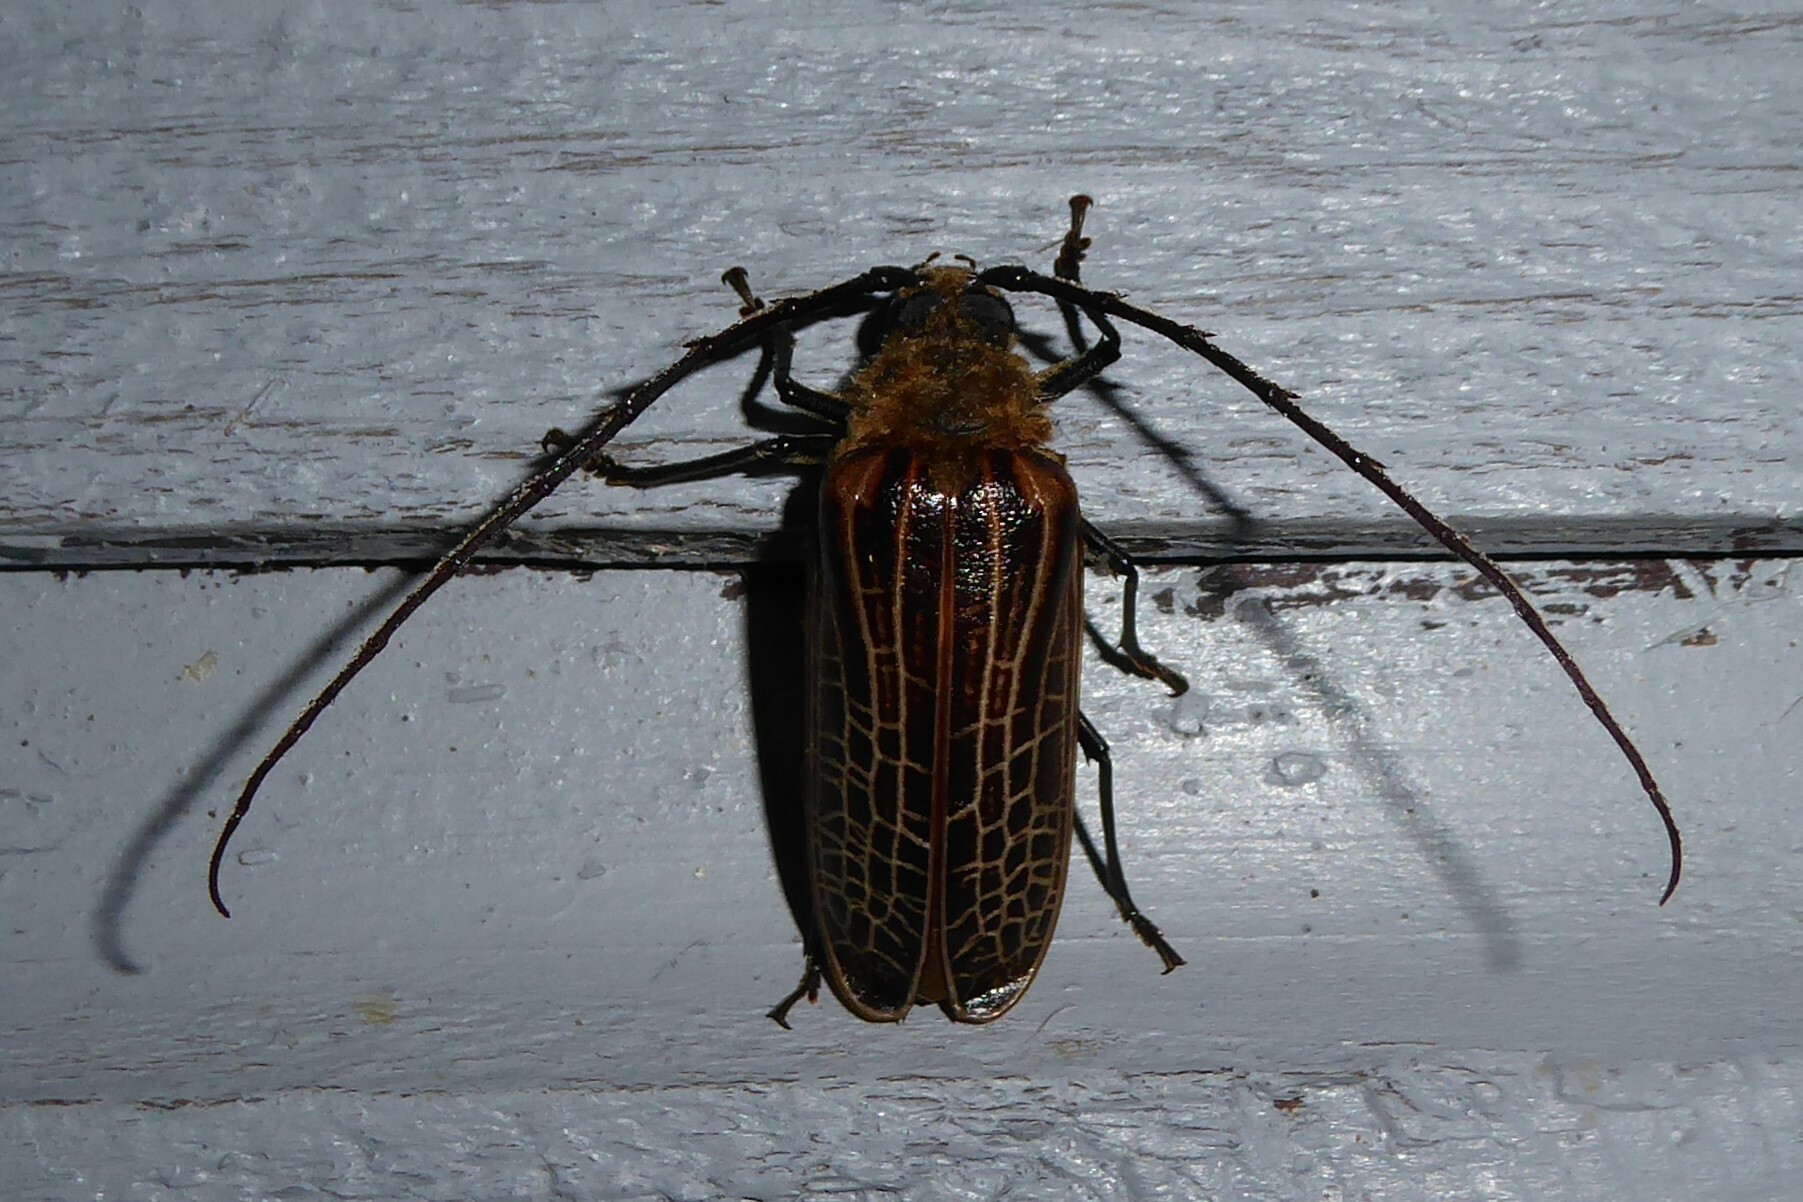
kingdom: Animalia
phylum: Arthropoda
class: Insecta
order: Coleoptera
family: Cerambycidae
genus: Prionoplus
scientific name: Prionoplus reticularis
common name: Huhu beetle
